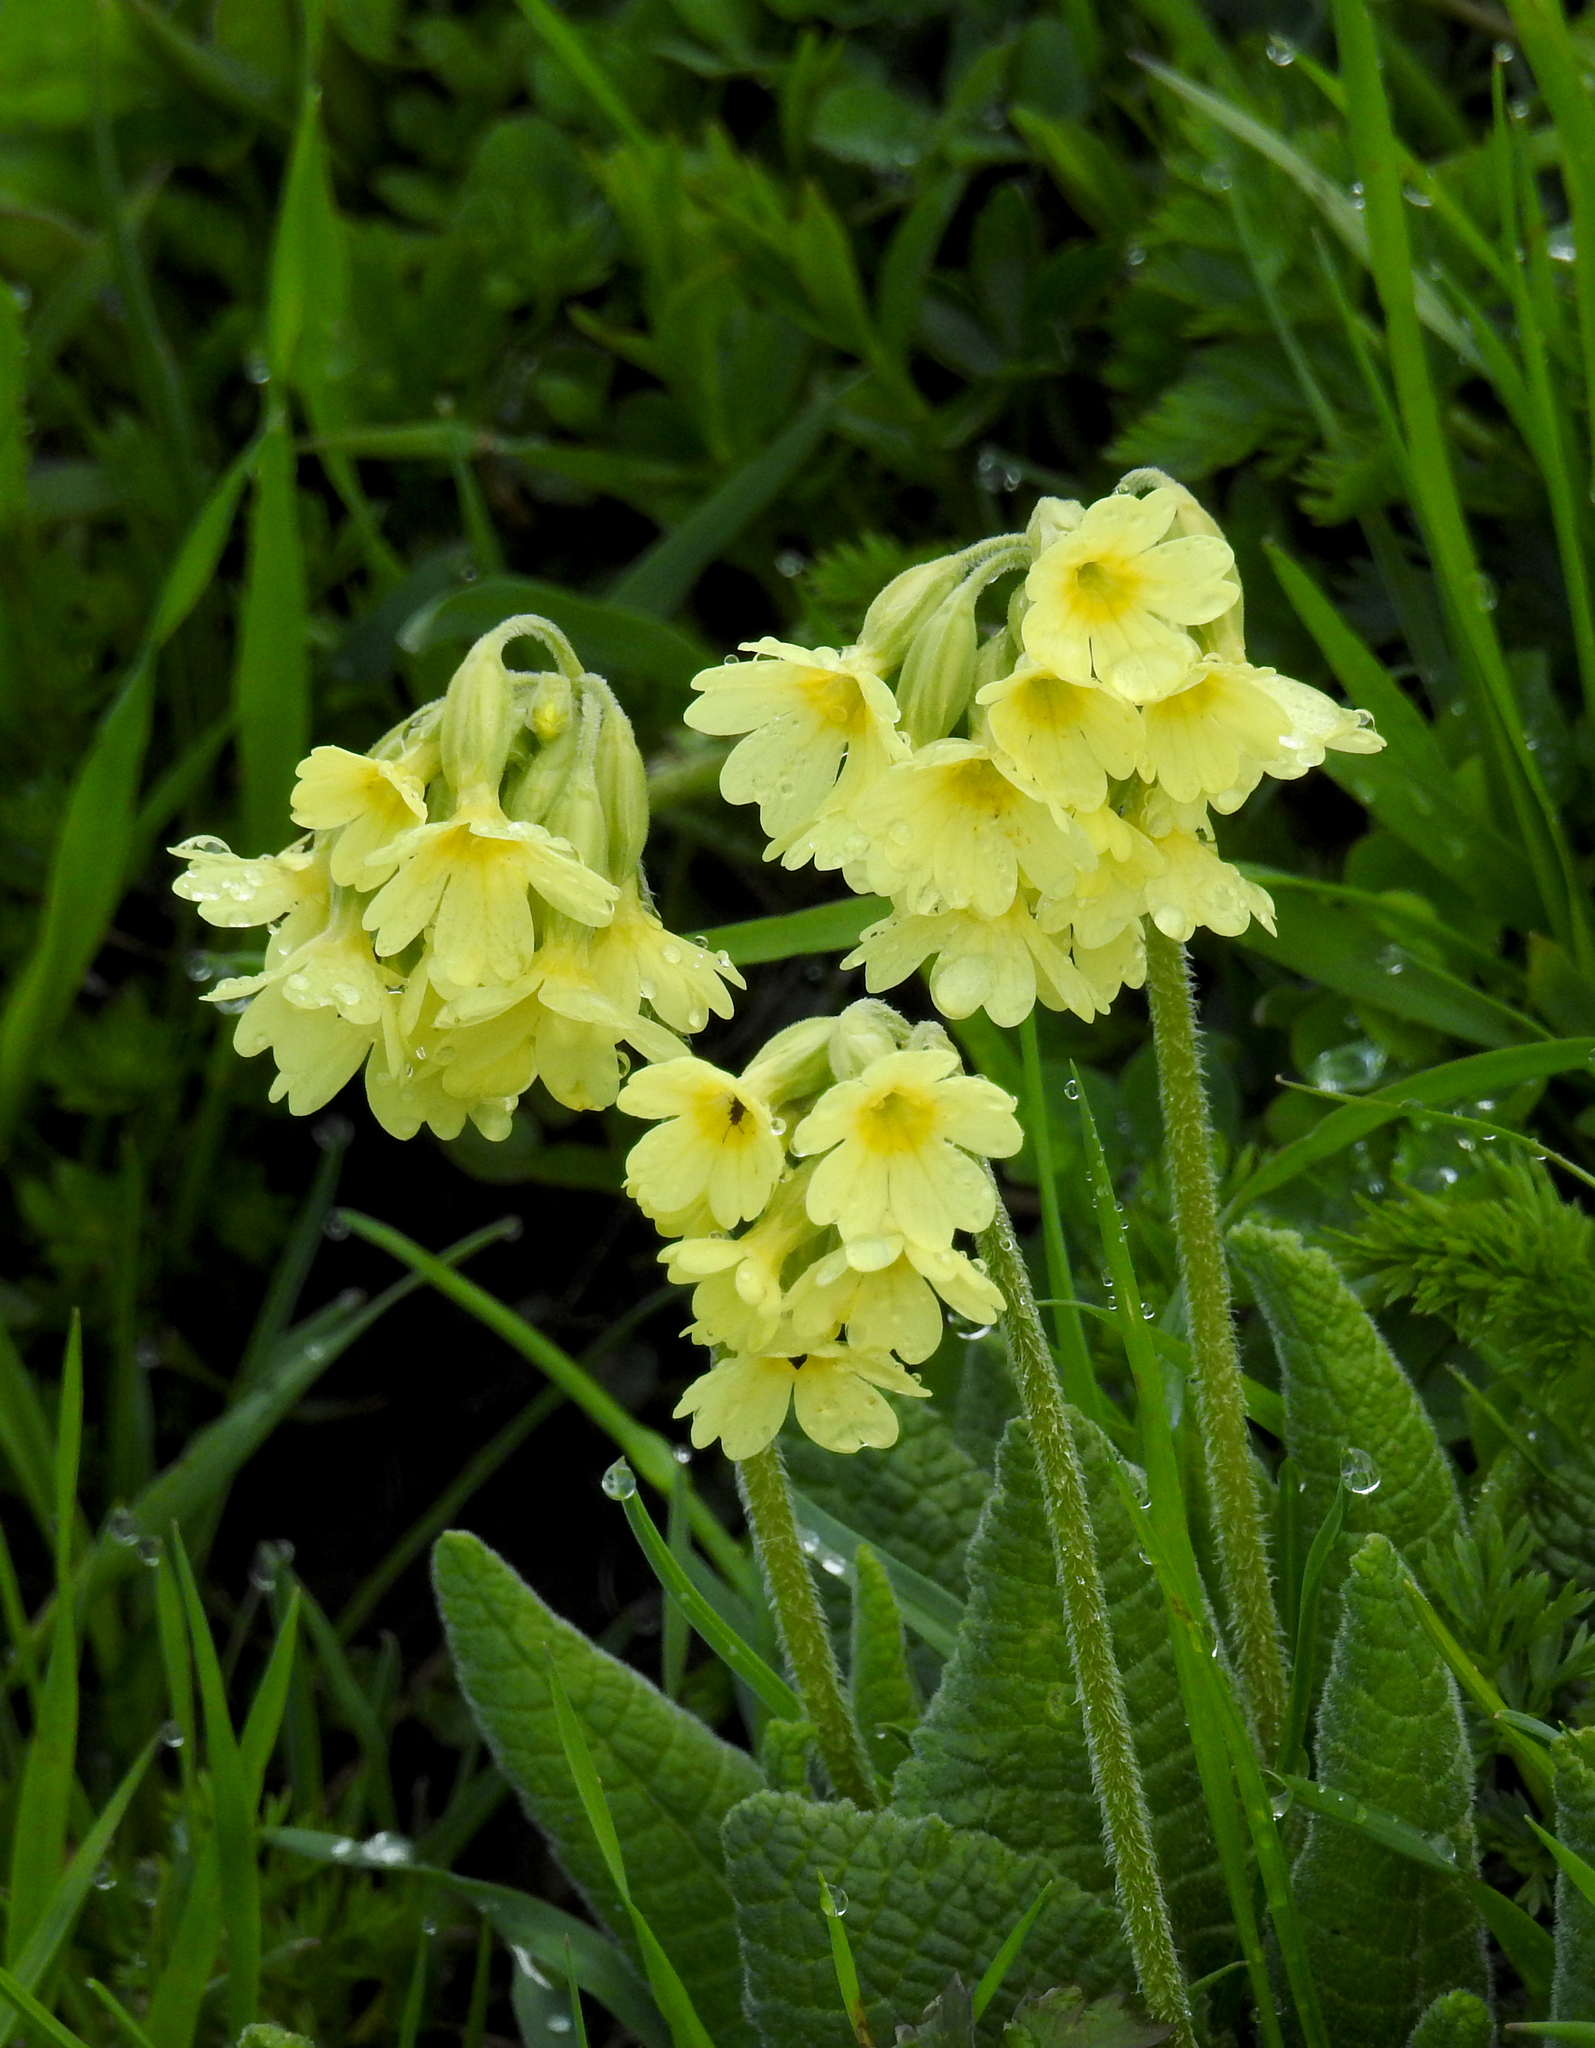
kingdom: Plantae
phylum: Tracheophyta
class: Magnoliopsida
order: Ericales
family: Primulaceae
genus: Primula
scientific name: Primula elatior
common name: Oxlip
